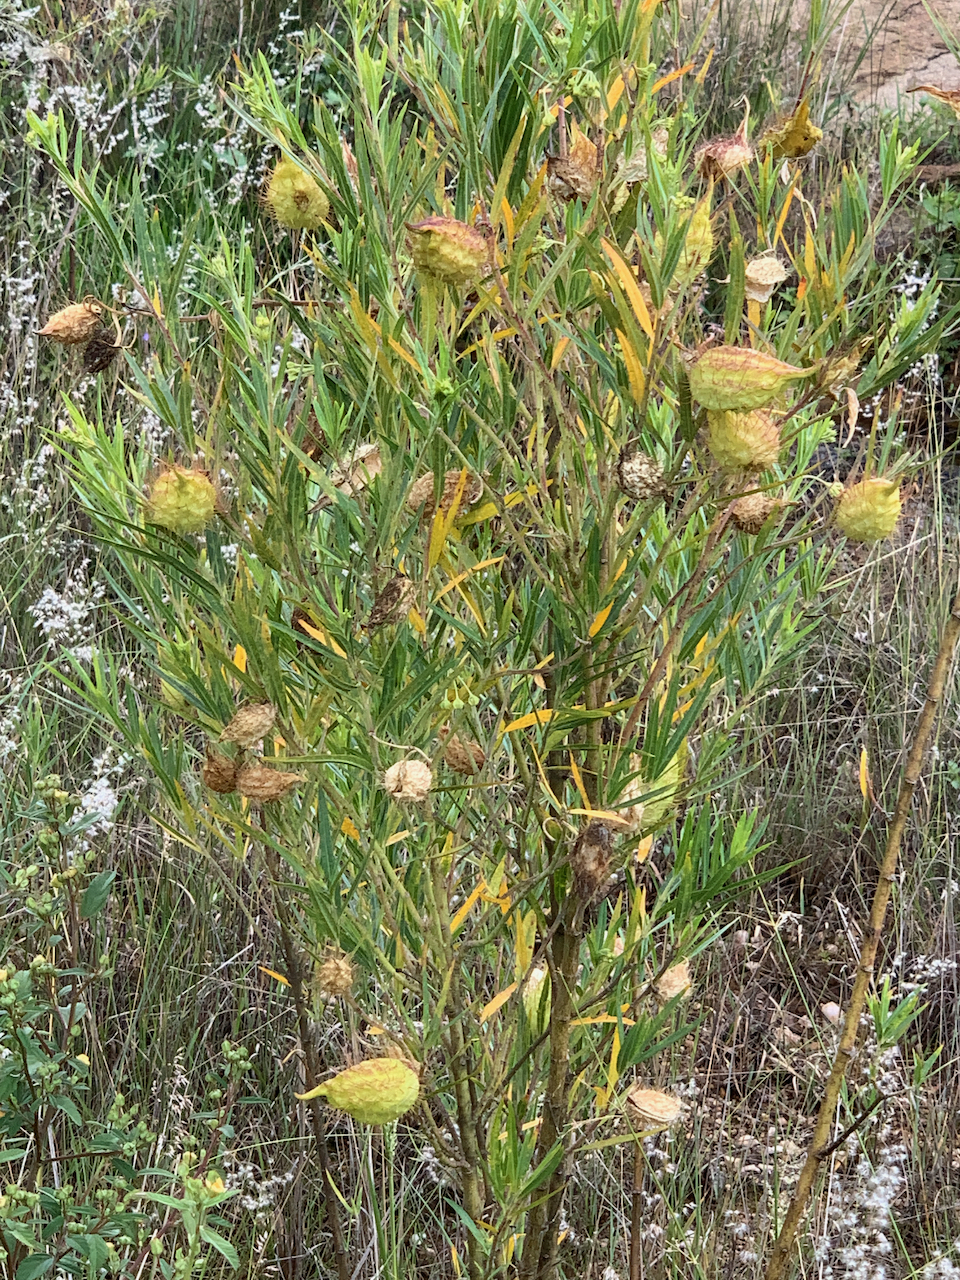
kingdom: Plantae
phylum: Tracheophyta
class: Magnoliopsida
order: Gentianales
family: Apocynaceae
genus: Gomphocarpus
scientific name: Gomphocarpus fruticosus
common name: Milkweed
